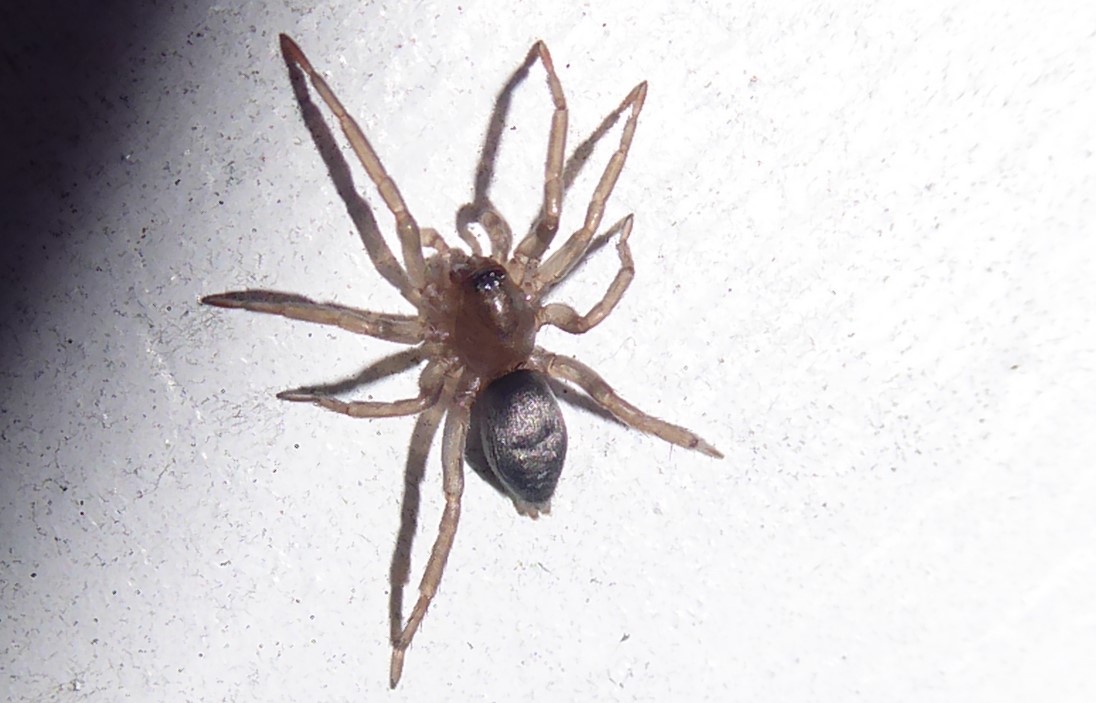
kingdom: Animalia
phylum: Arthropoda
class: Arachnida
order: Araneae
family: Gnaphosidae
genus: Hypodrassodes
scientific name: Hypodrassodes maoricus
